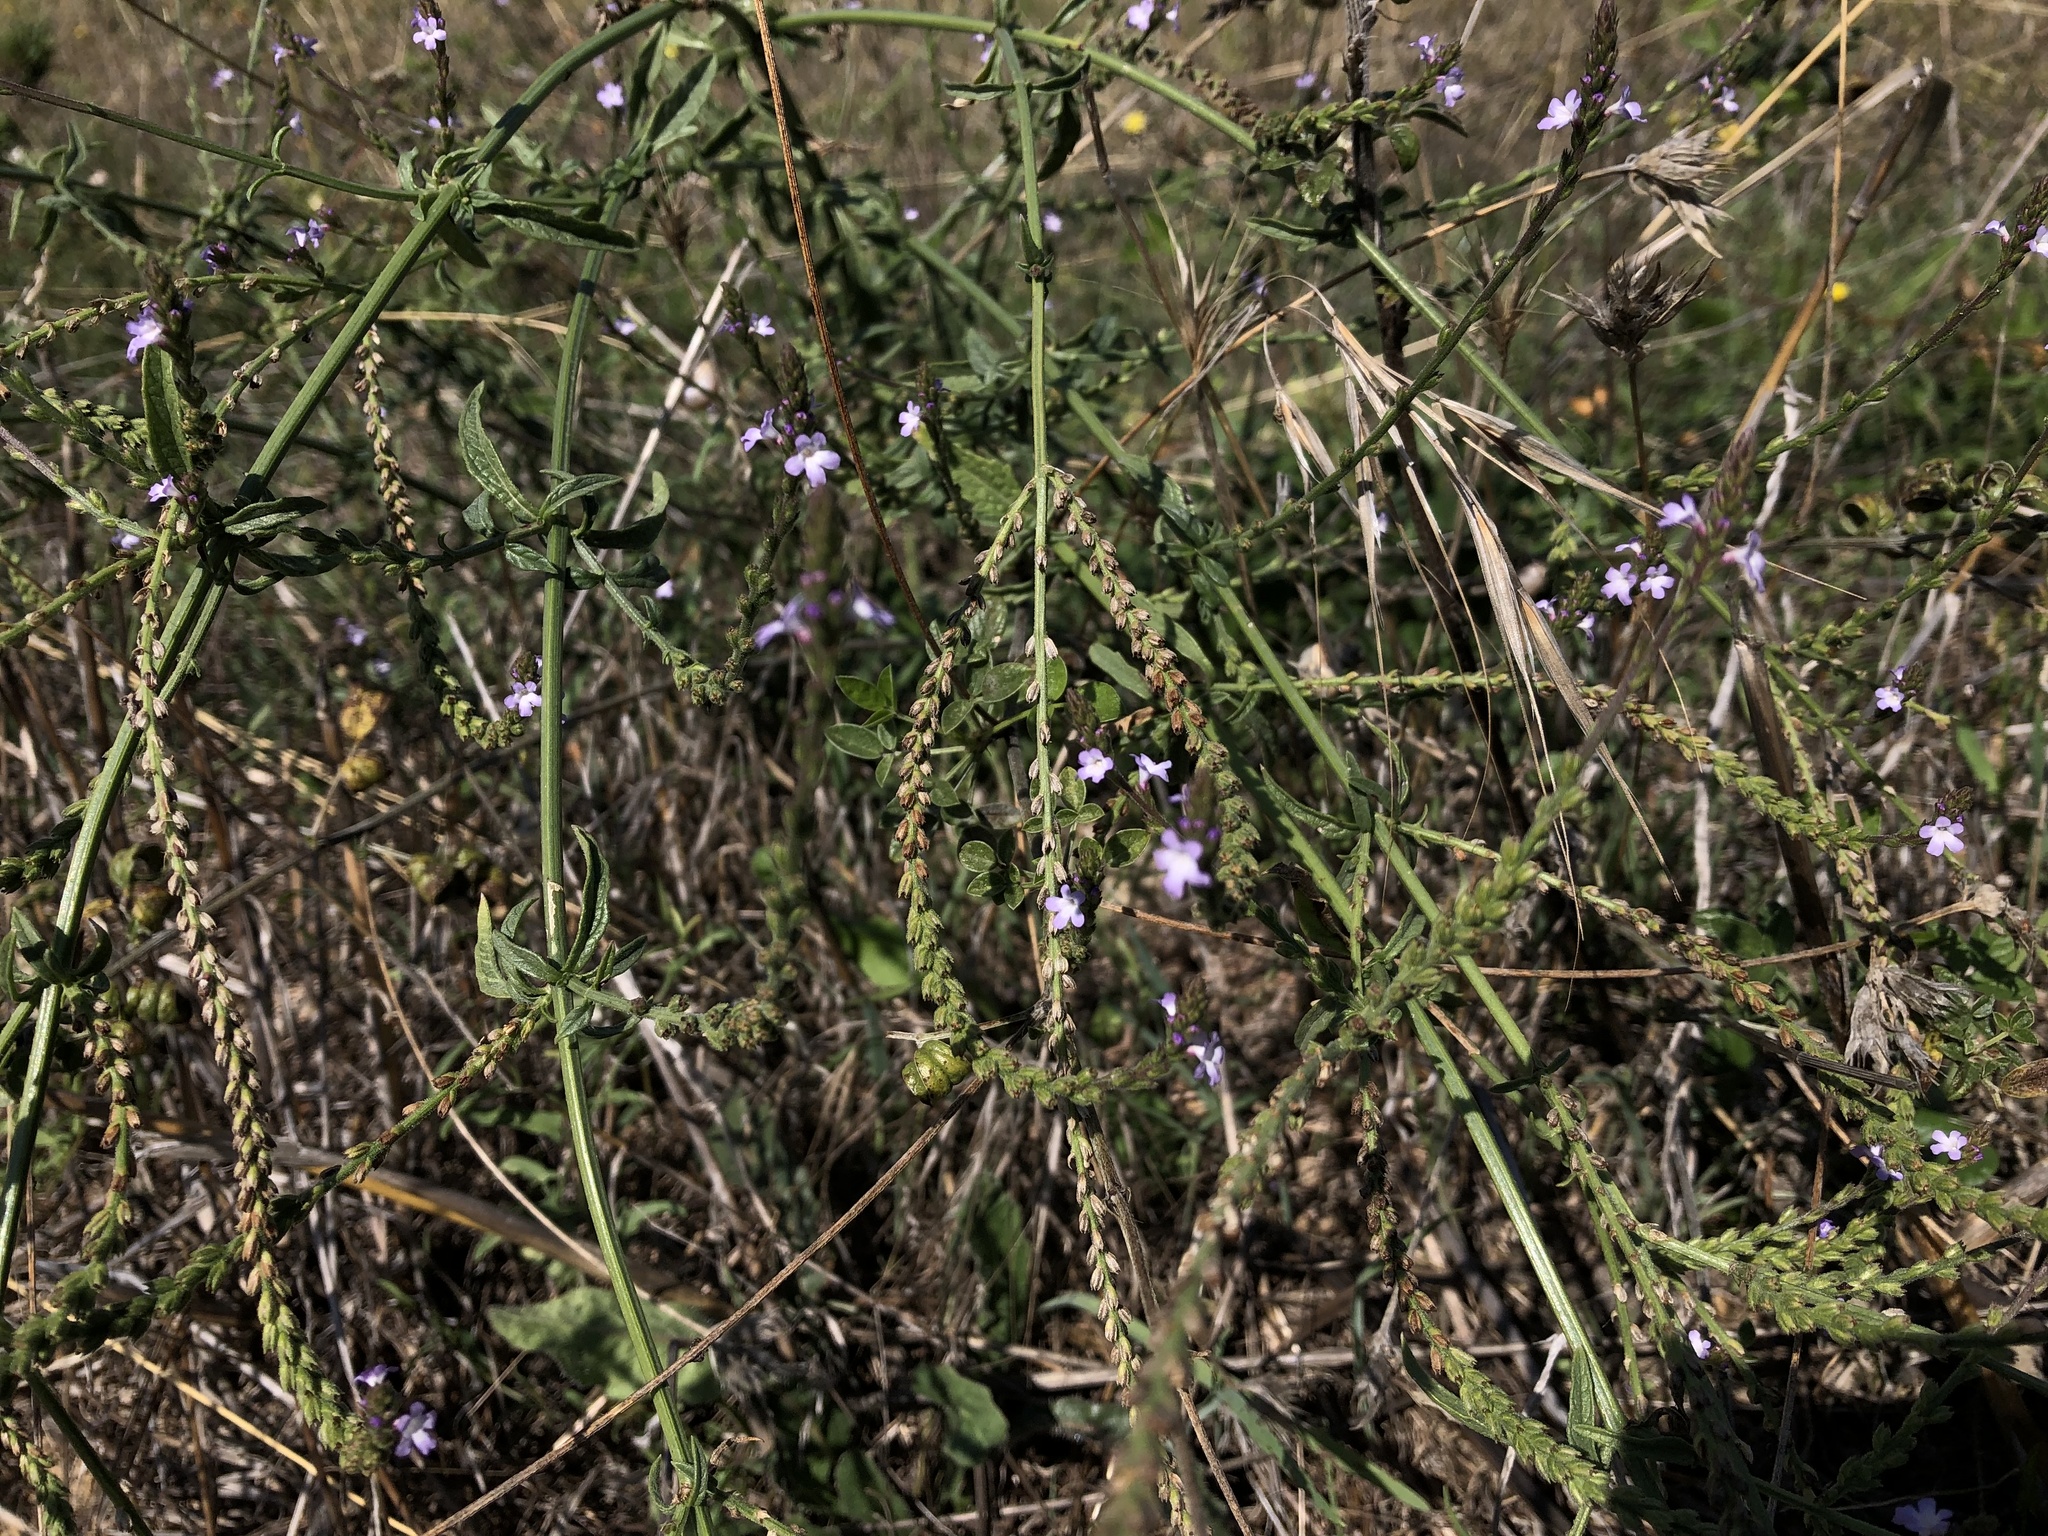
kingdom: Plantae
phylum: Tracheophyta
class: Magnoliopsida
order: Lamiales
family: Verbenaceae
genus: Verbena
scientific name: Verbena officinalis
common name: Vervain
